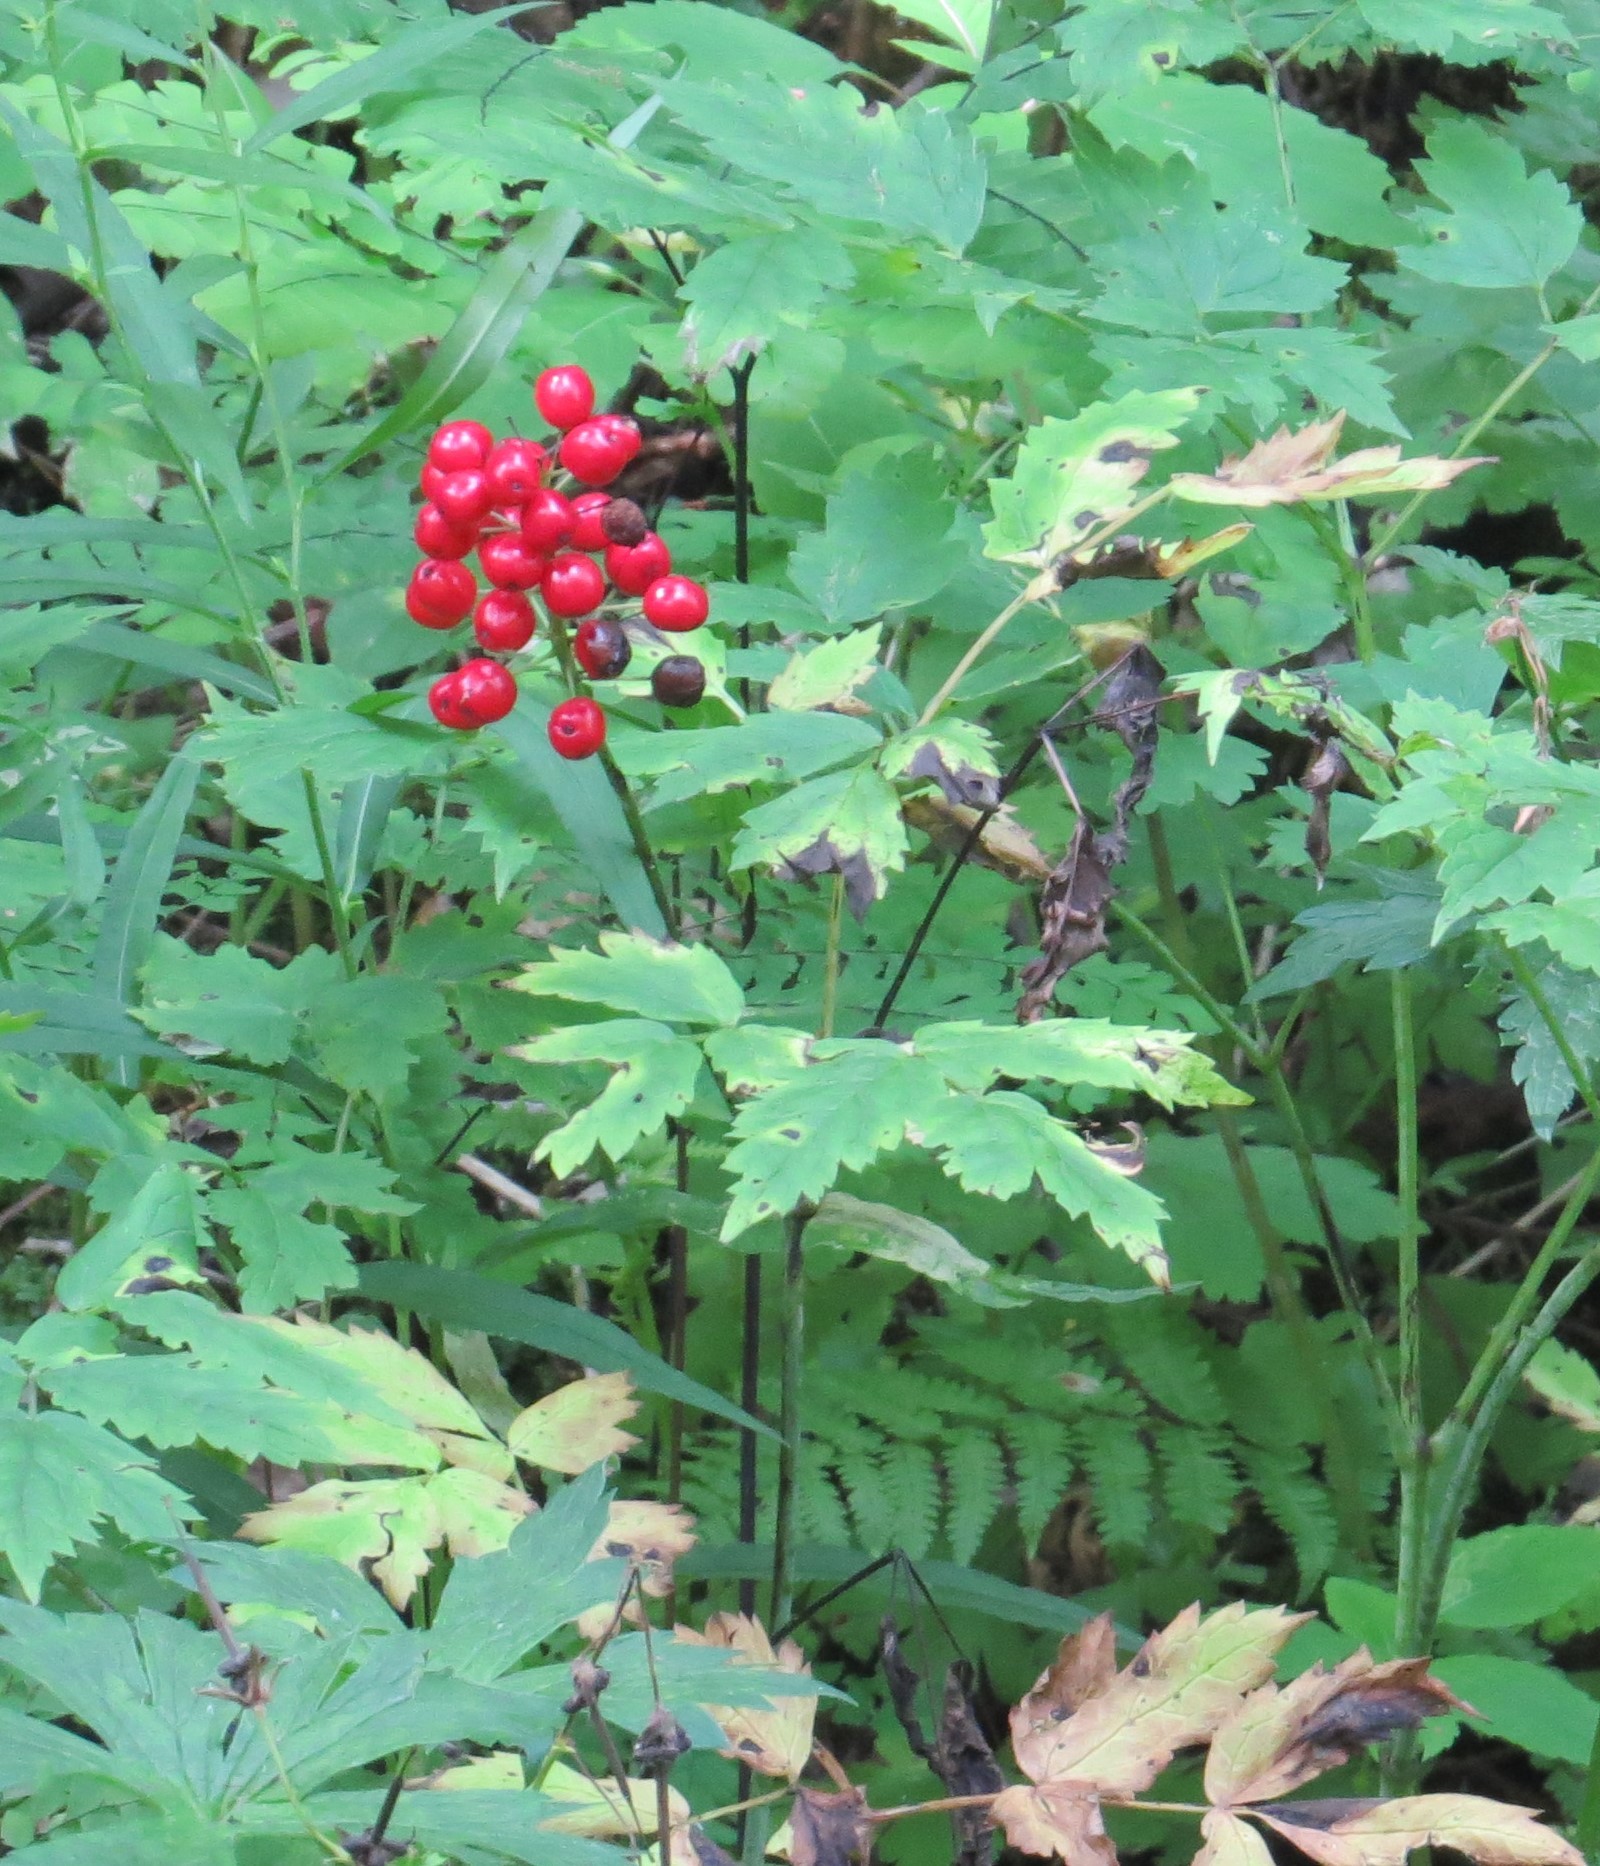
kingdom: Plantae
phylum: Tracheophyta
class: Magnoliopsida
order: Ranunculales
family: Ranunculaceae
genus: Actaea
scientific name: Actaea rubra
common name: Red baneberry
